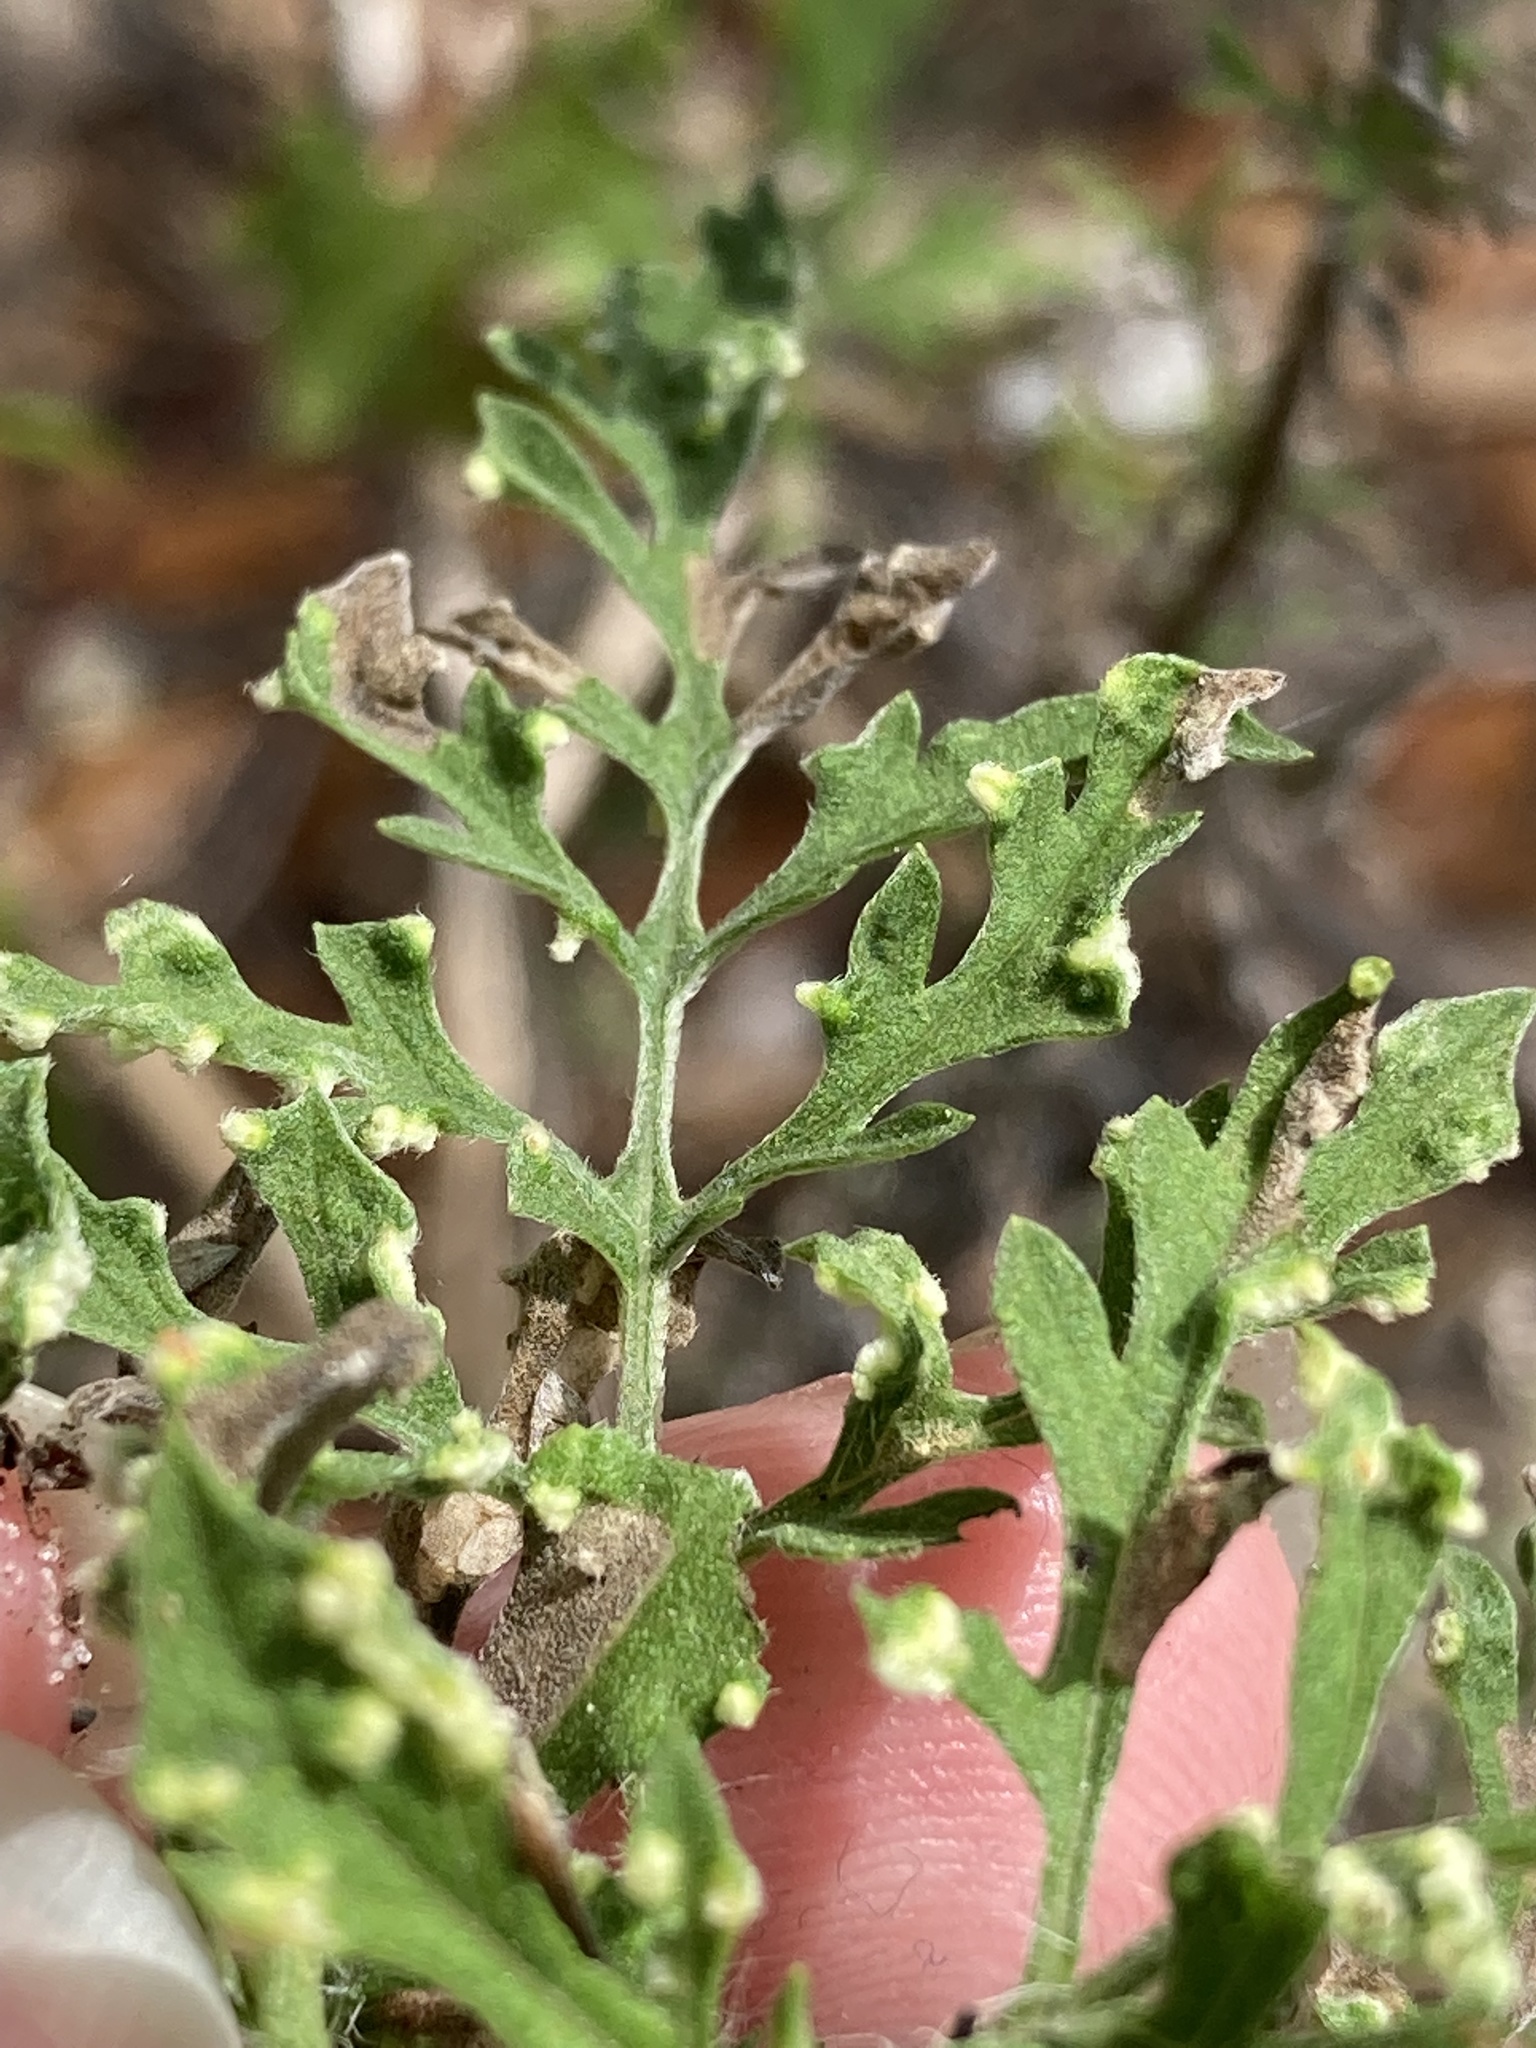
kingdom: Animalia
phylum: Arthropoda
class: Arachnida
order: Trombidiformes
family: Eriophyidae
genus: Aceria
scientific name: Aceria
